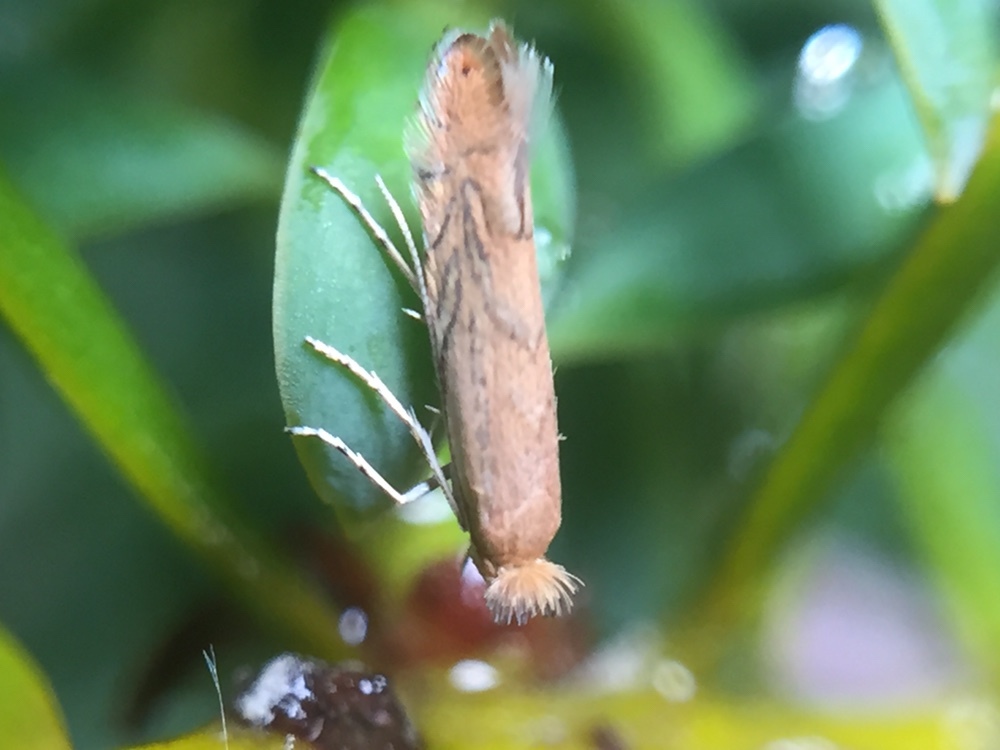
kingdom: Animalia
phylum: Arthropoda
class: Insecta
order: Lepidoptera
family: Gracillariidae
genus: Phyllonorycter
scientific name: Phyllonorycter messaniella
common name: Garden midget
